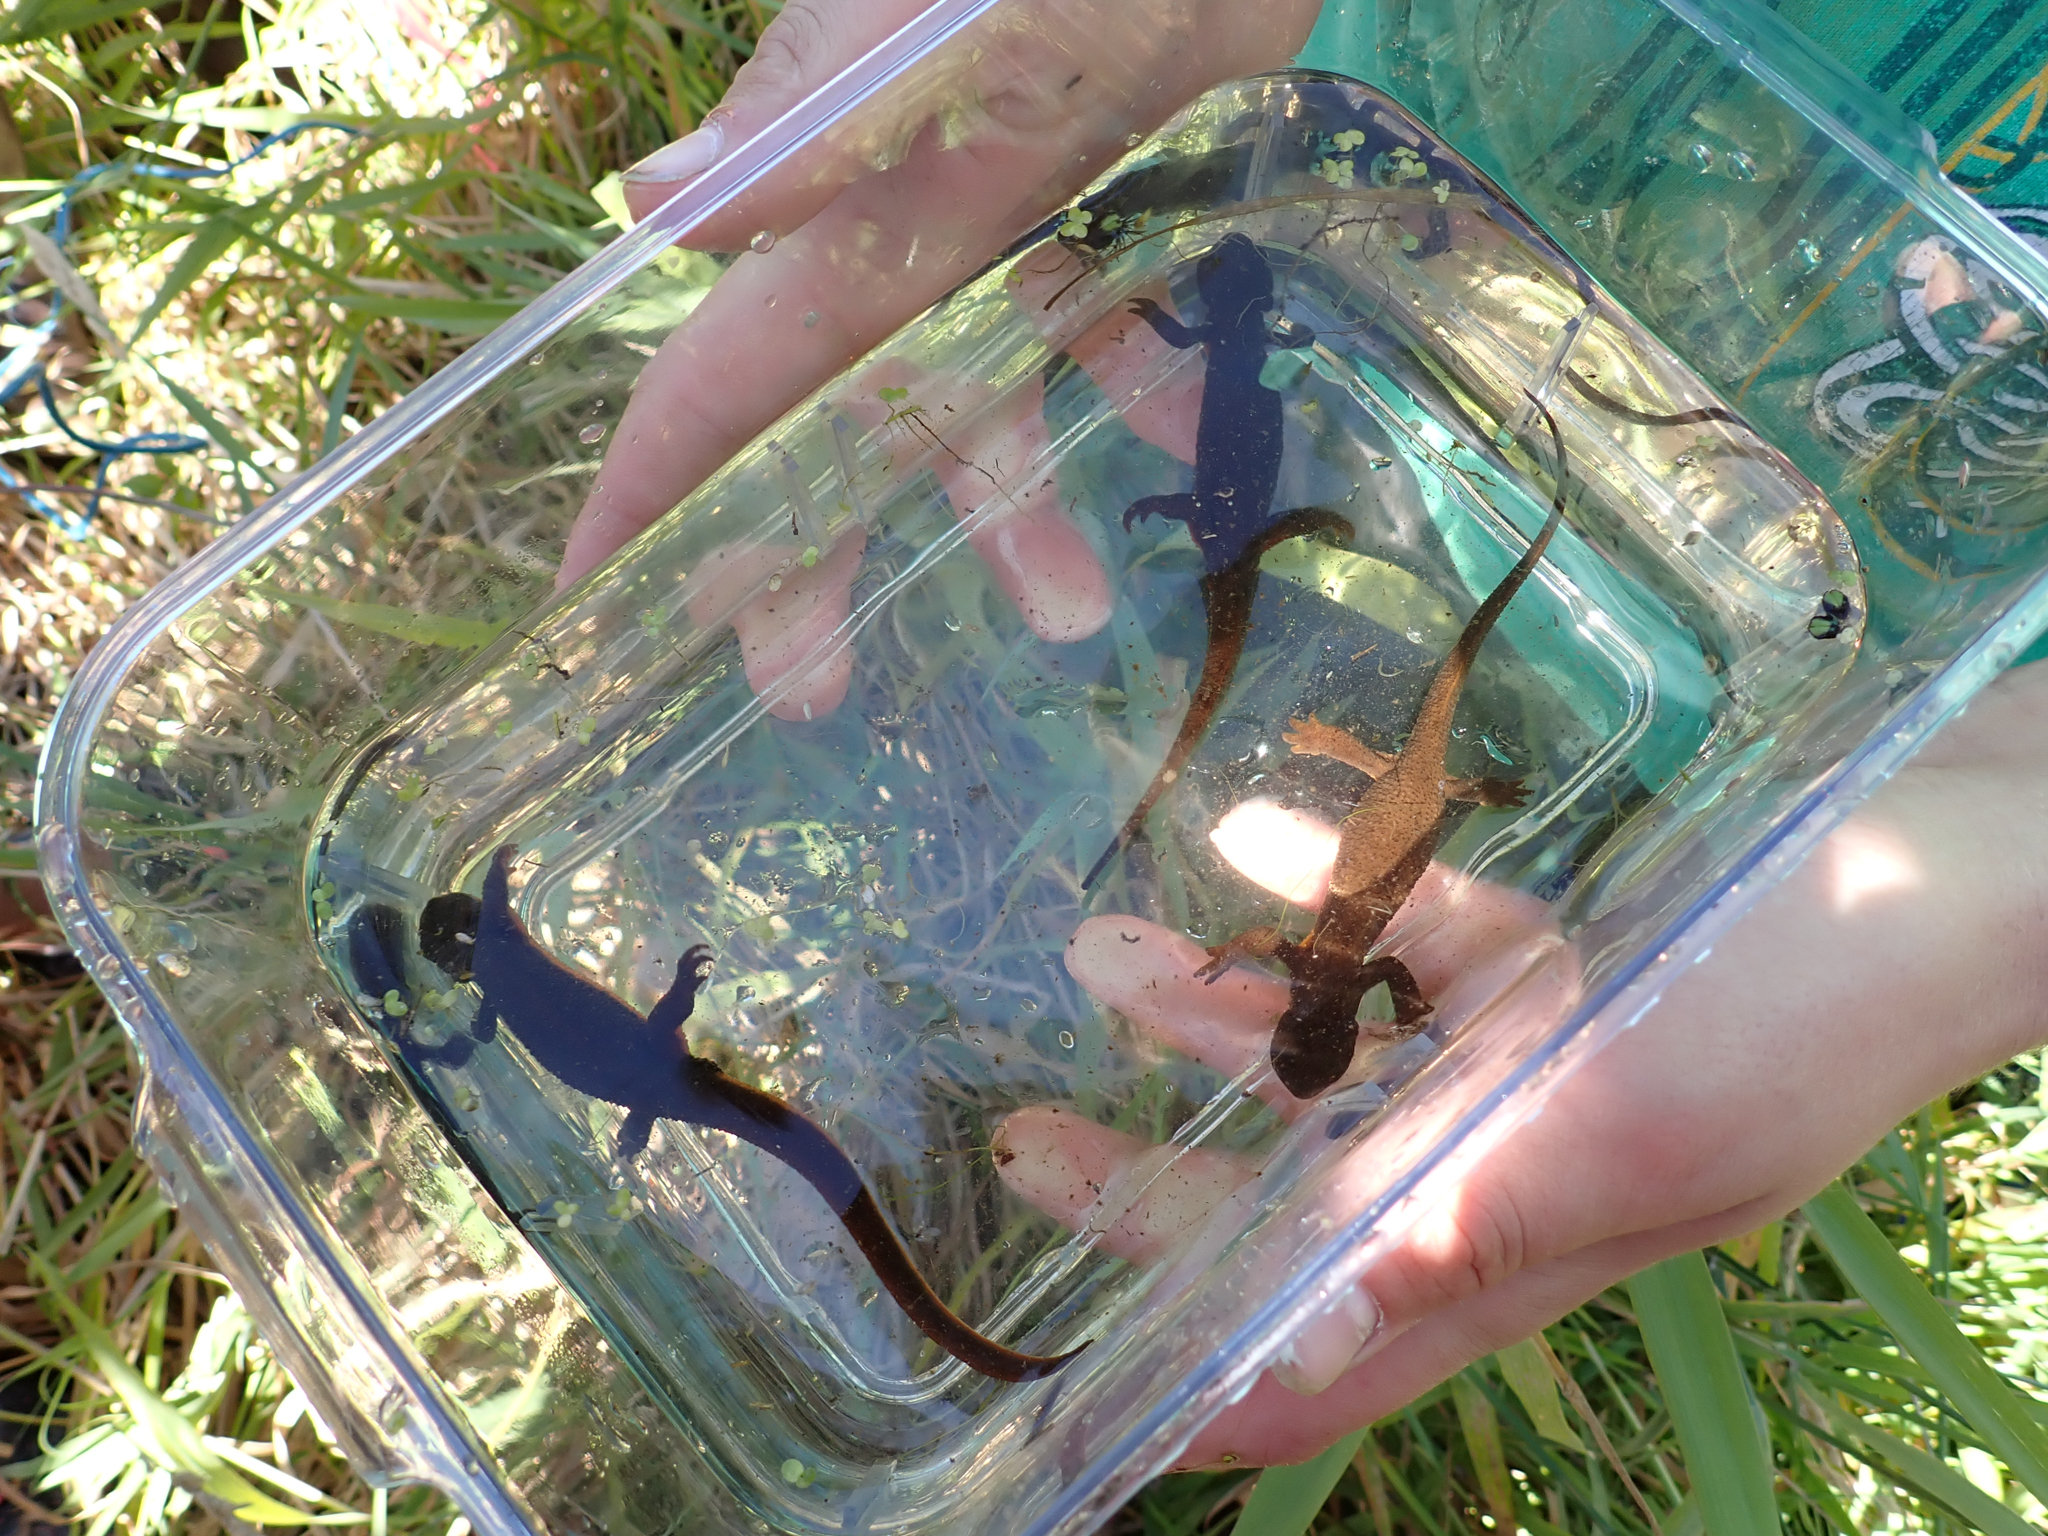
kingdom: Animalia
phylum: Chordata
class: Amphibia
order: Caudata
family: Salamandridae
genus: Taricha
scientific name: Taricha granulosa
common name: Roughskin newt
